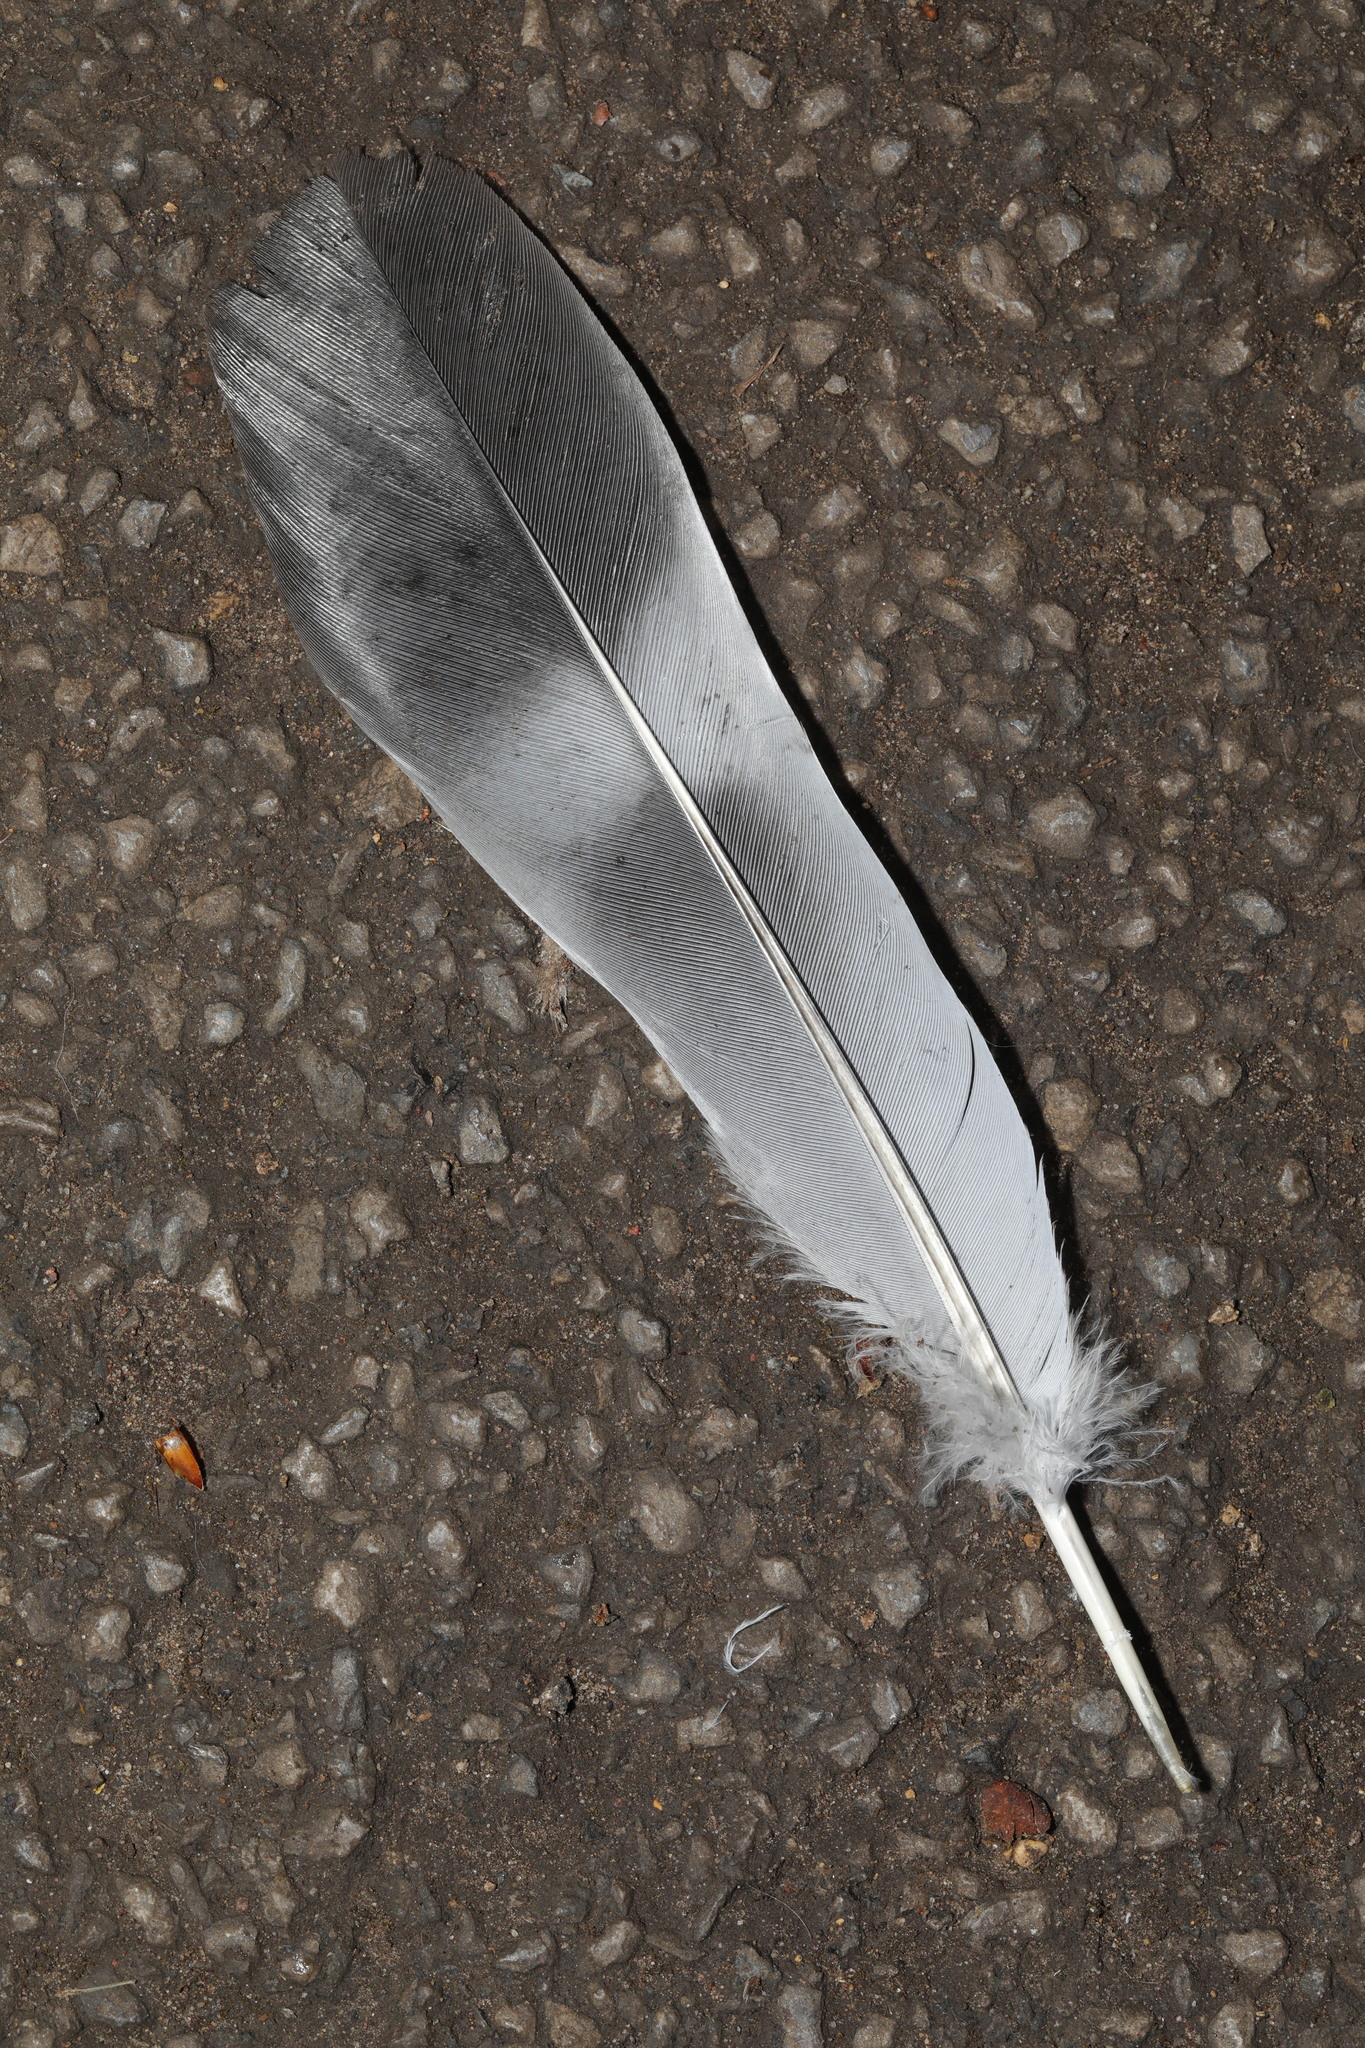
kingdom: Animalia
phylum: Chordata
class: Aves
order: Columbiformes
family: Columbidae
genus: Columba
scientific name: Columba palumbus
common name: Common wood pigeon
